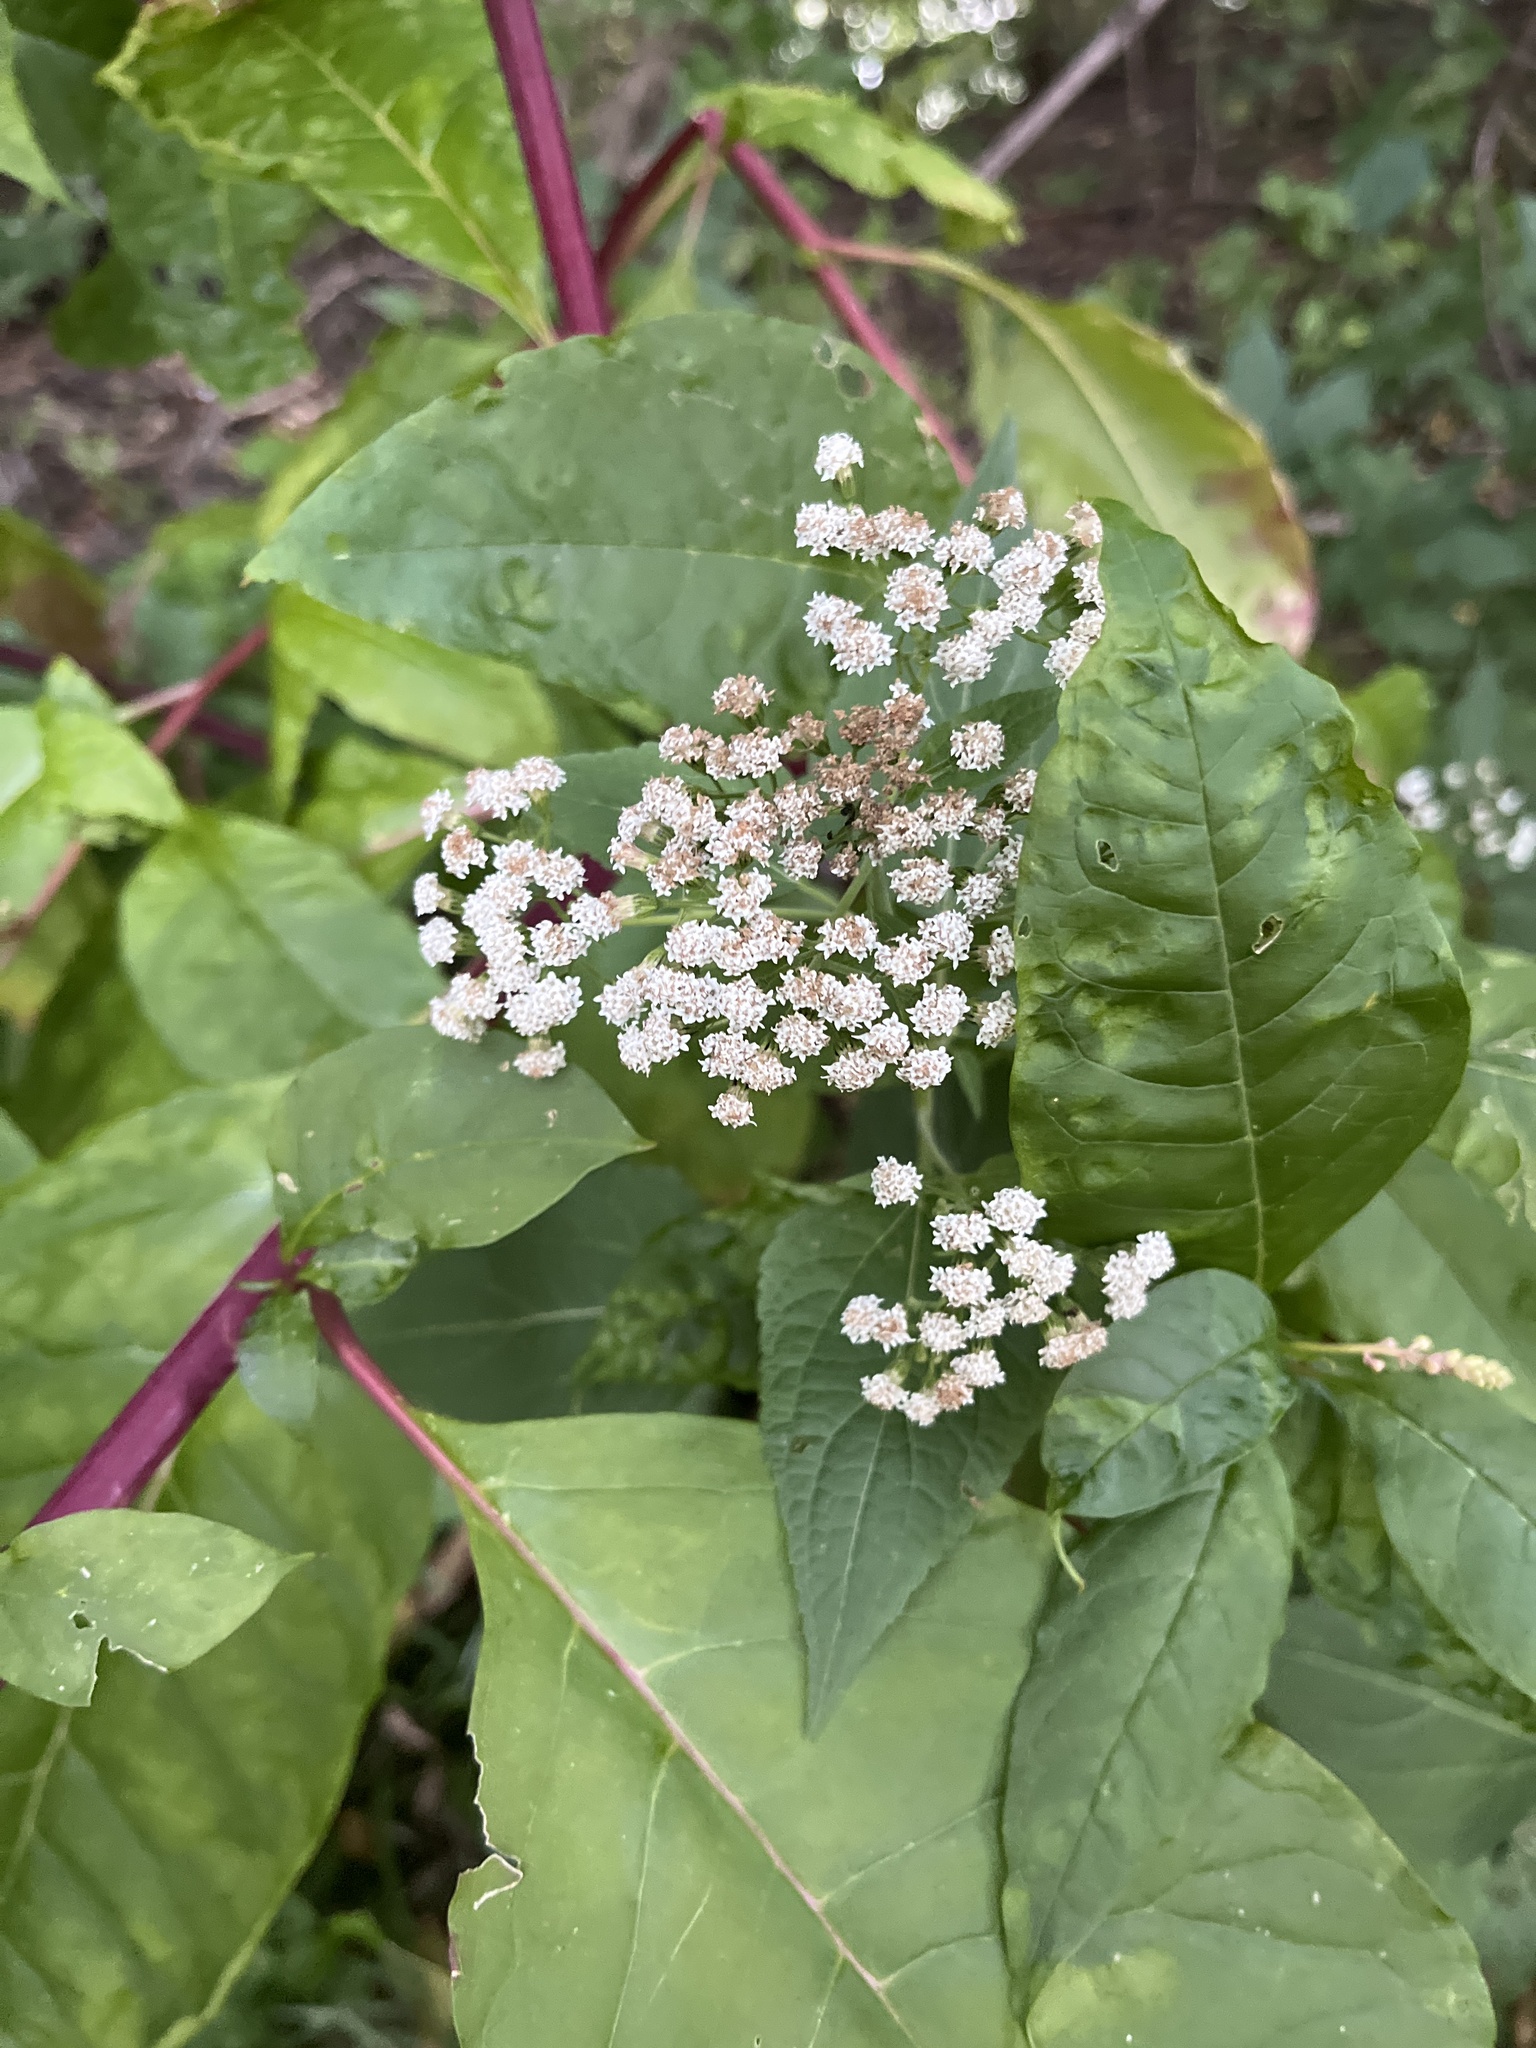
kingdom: Plantae
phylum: Tracheophyta
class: Magnoliopsida
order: Asterales
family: Asteraceae
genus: Ageratina
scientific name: Ageratina altissima
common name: White snakeroot
